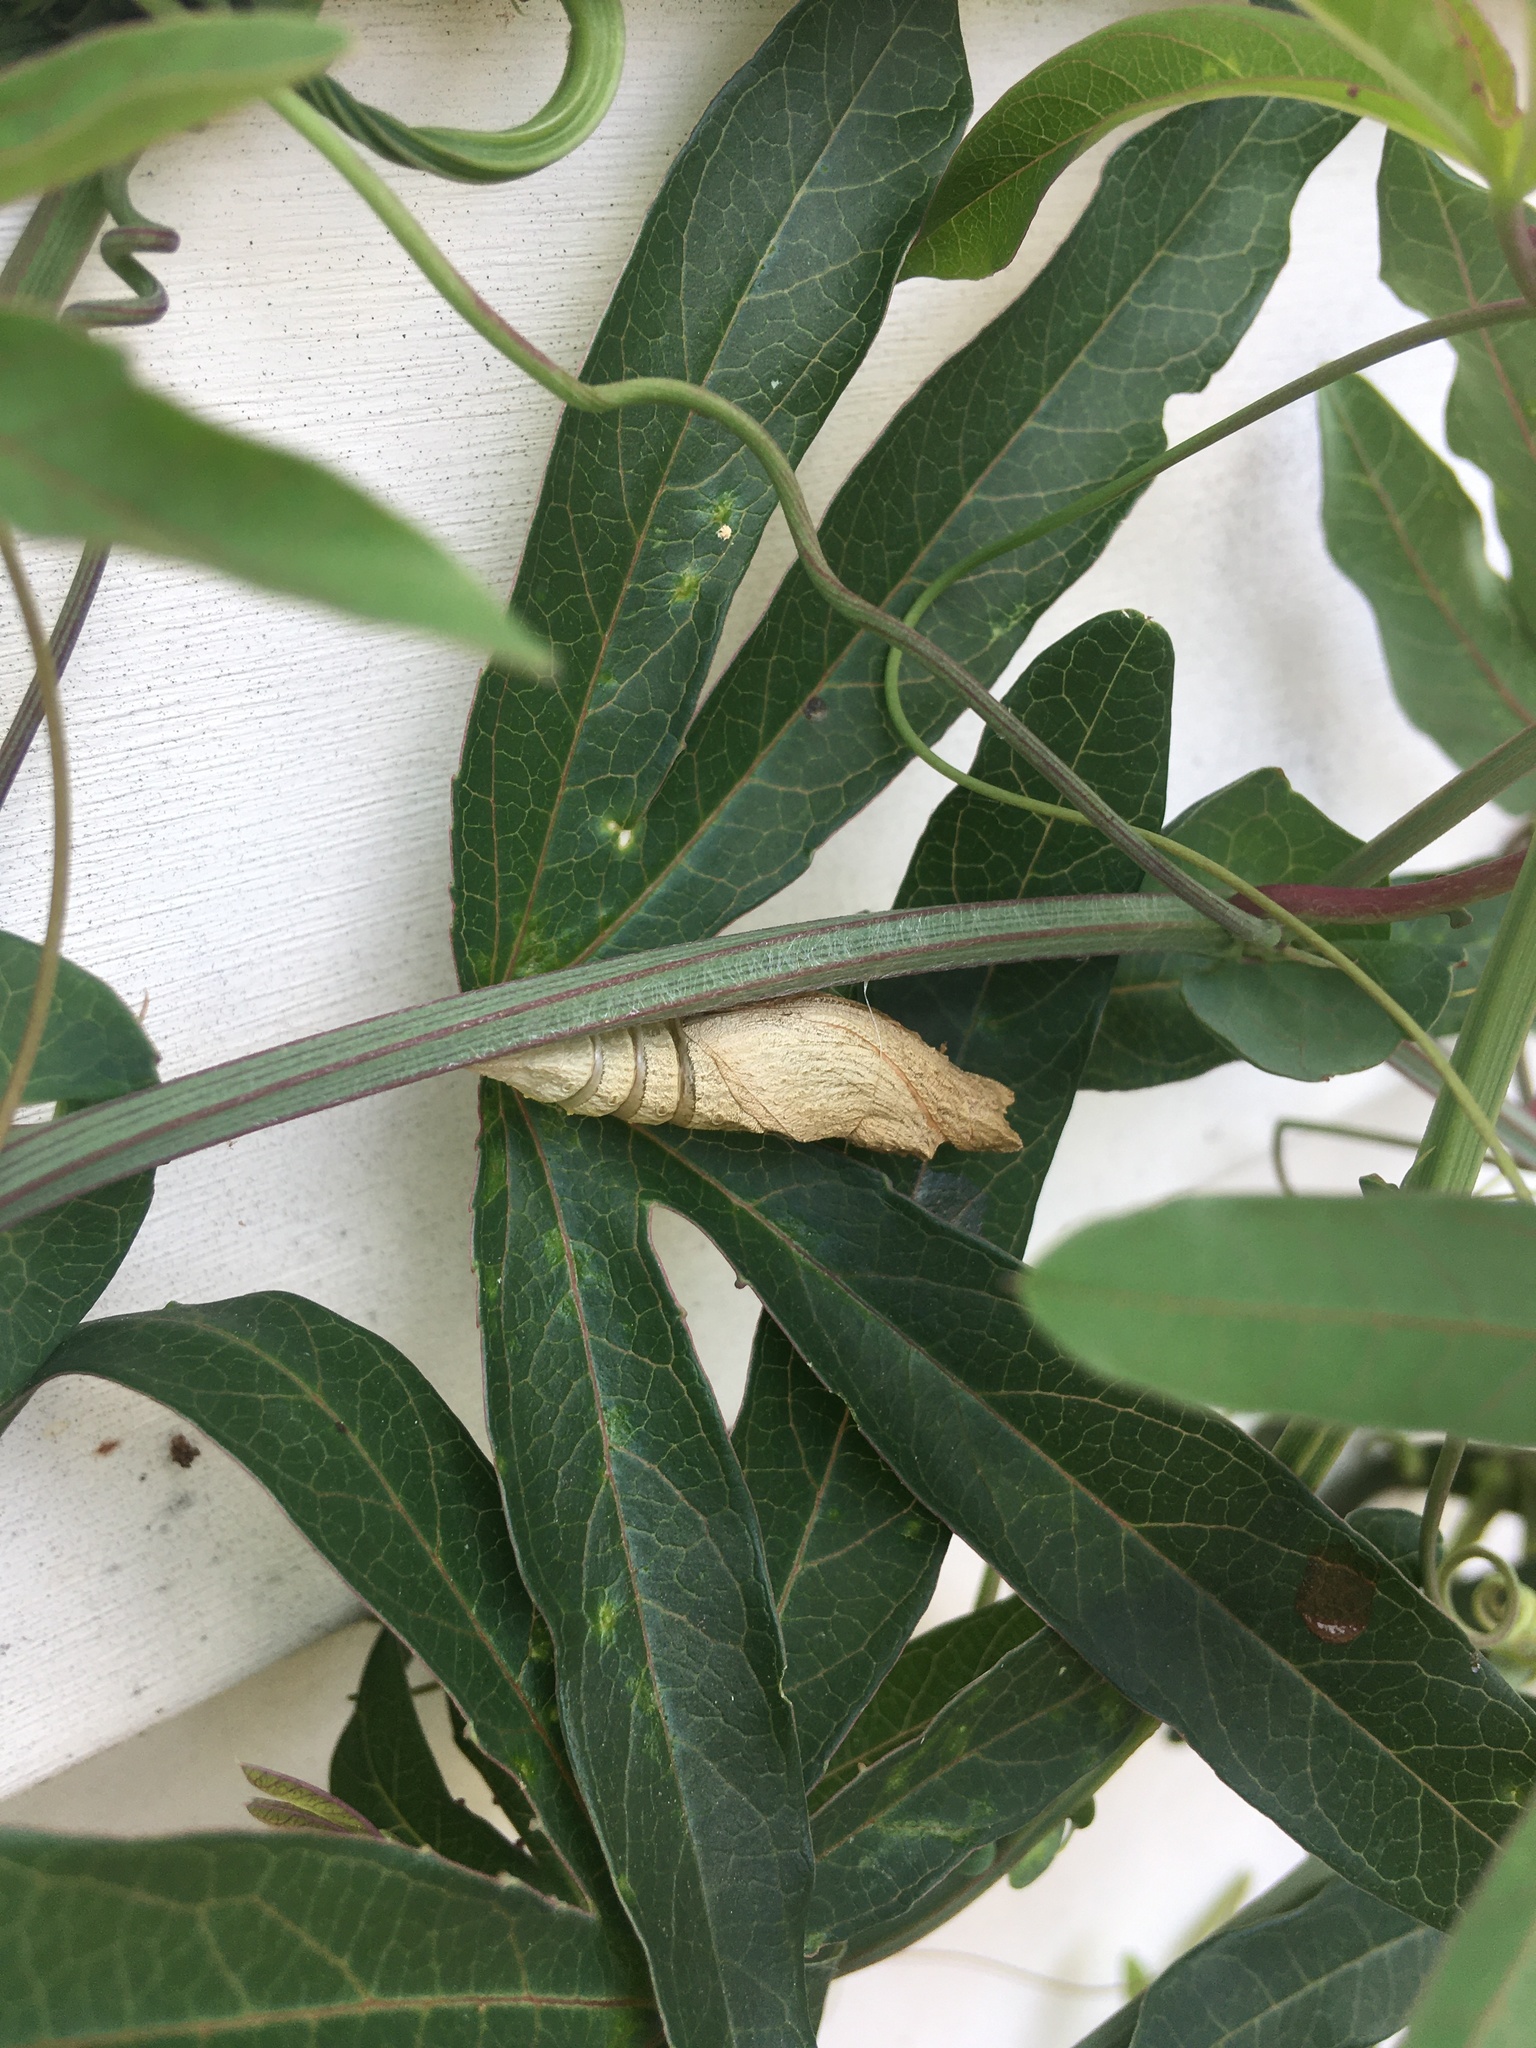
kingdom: Animalia
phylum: Arthropoda
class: Insecta
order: Lepidoptera
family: Papilionidae
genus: Papilio
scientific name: Papilio polyxenes
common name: Black swallowtail
